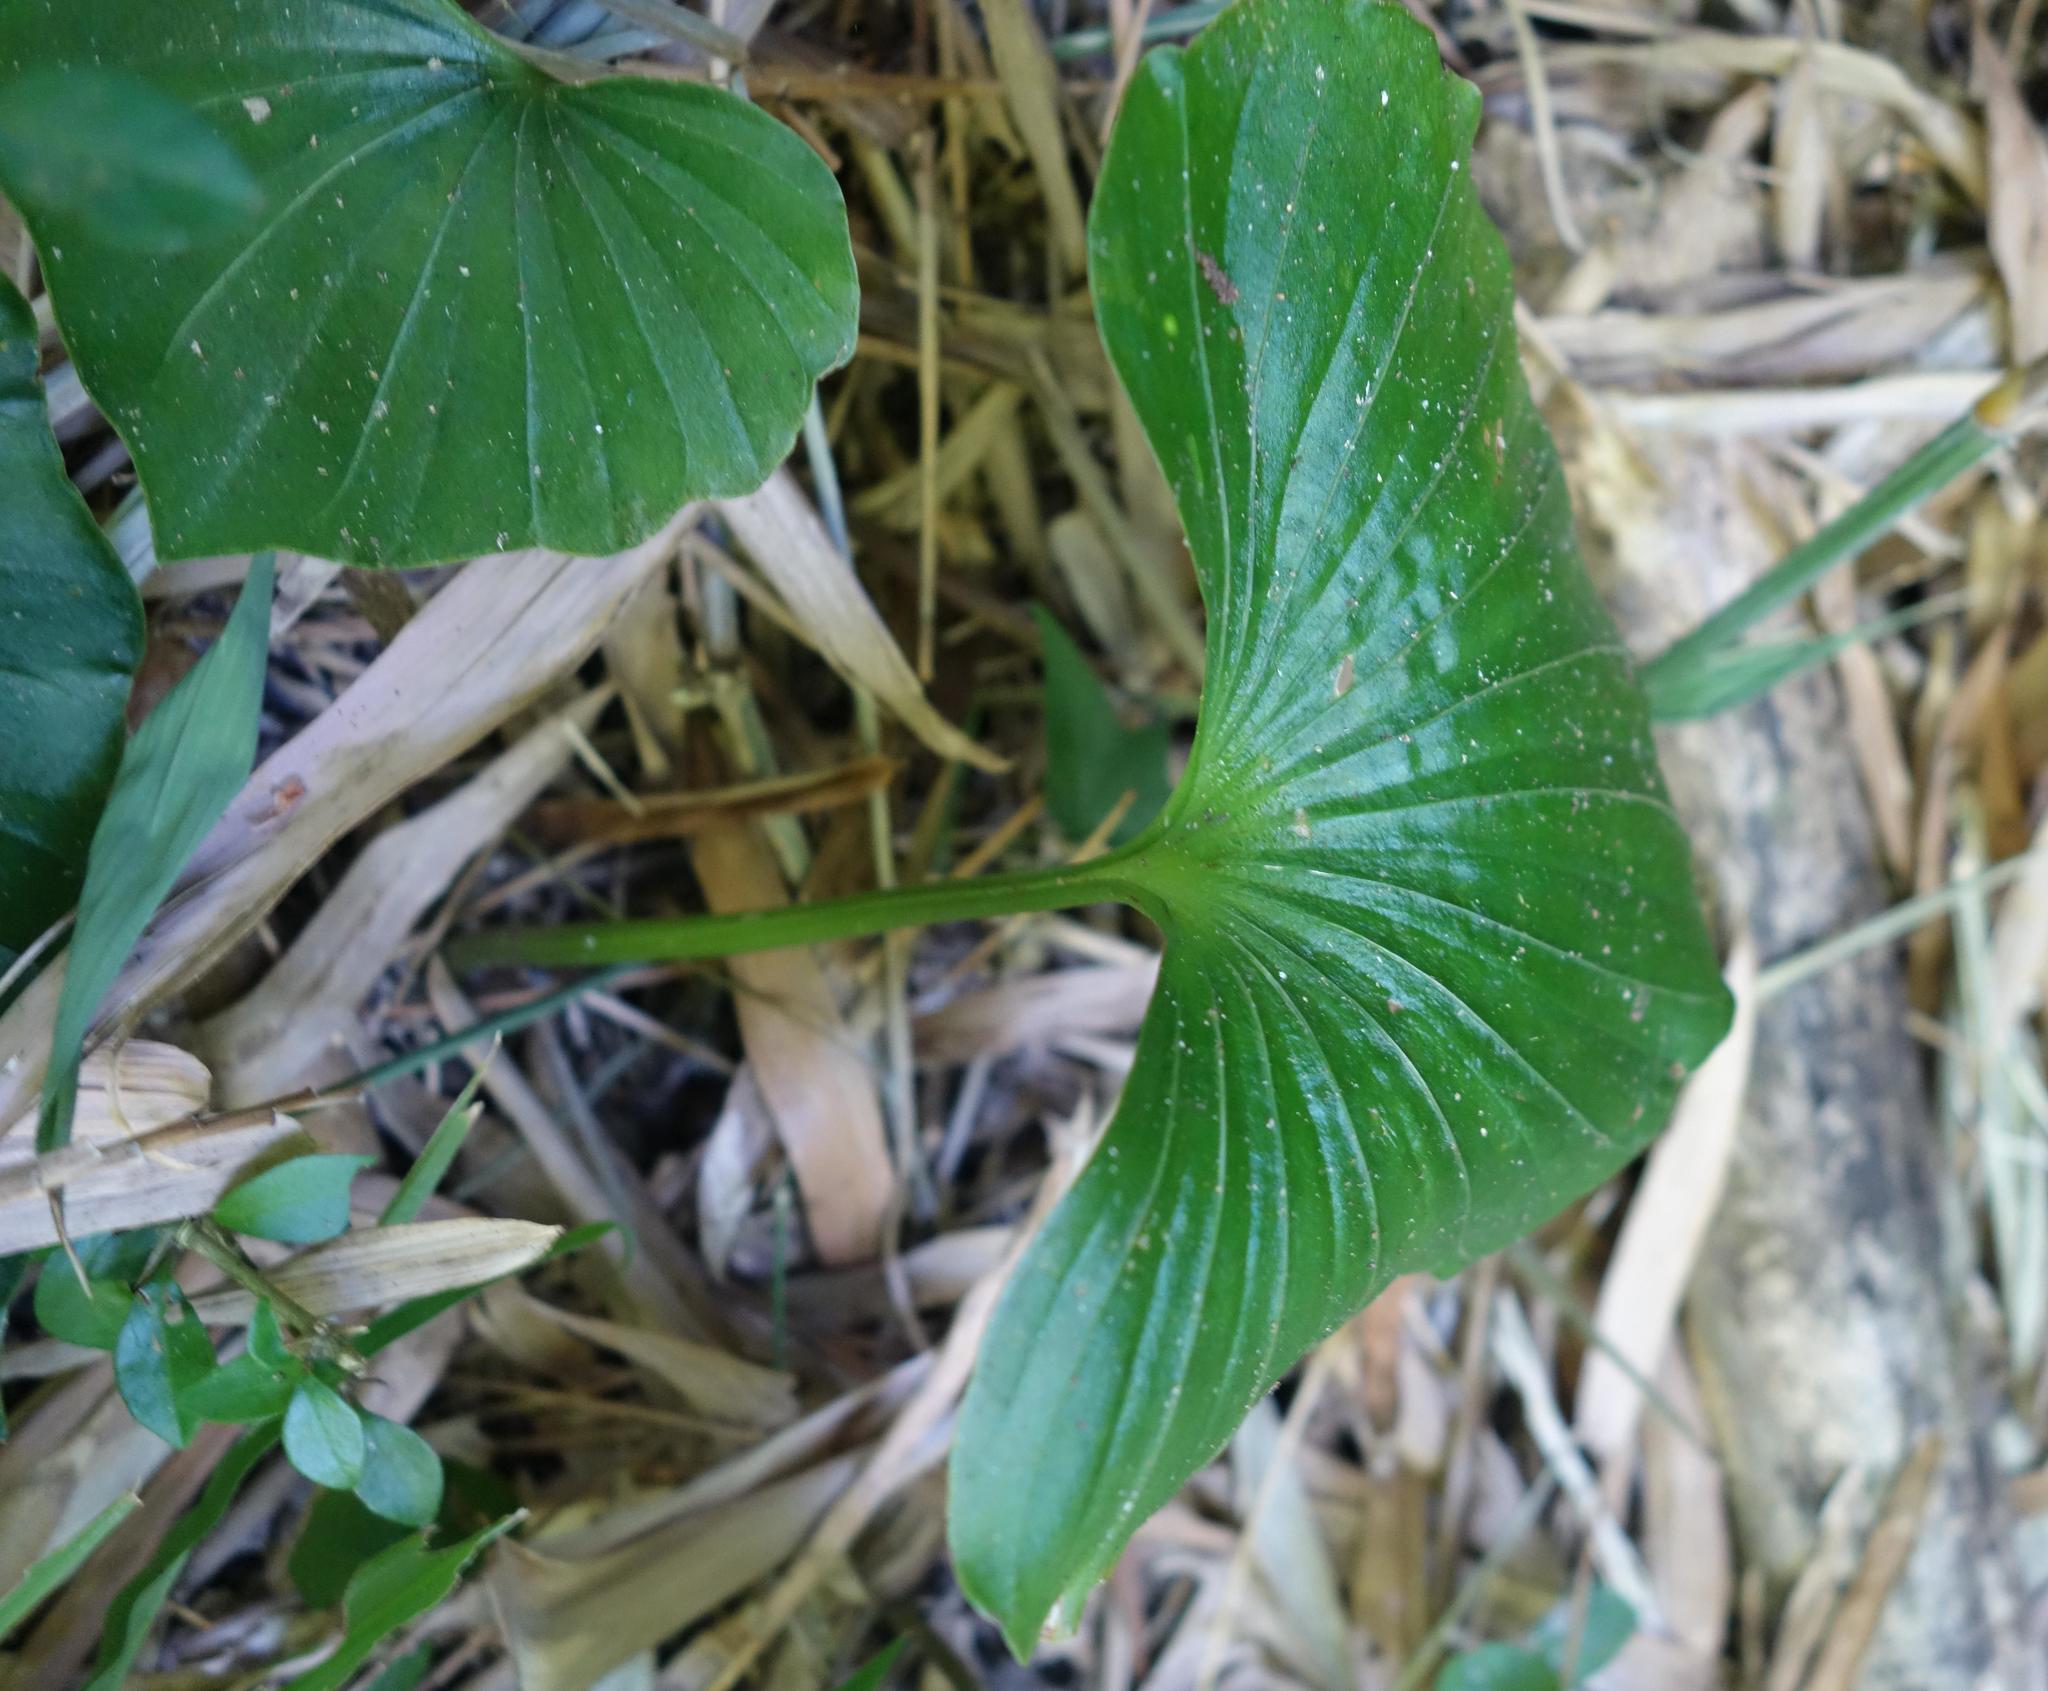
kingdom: Plantae
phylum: Tracheophyta
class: Liliopsida
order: Asparagales
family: Orchidaceae
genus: Nervilia
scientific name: Nervilia concolor
